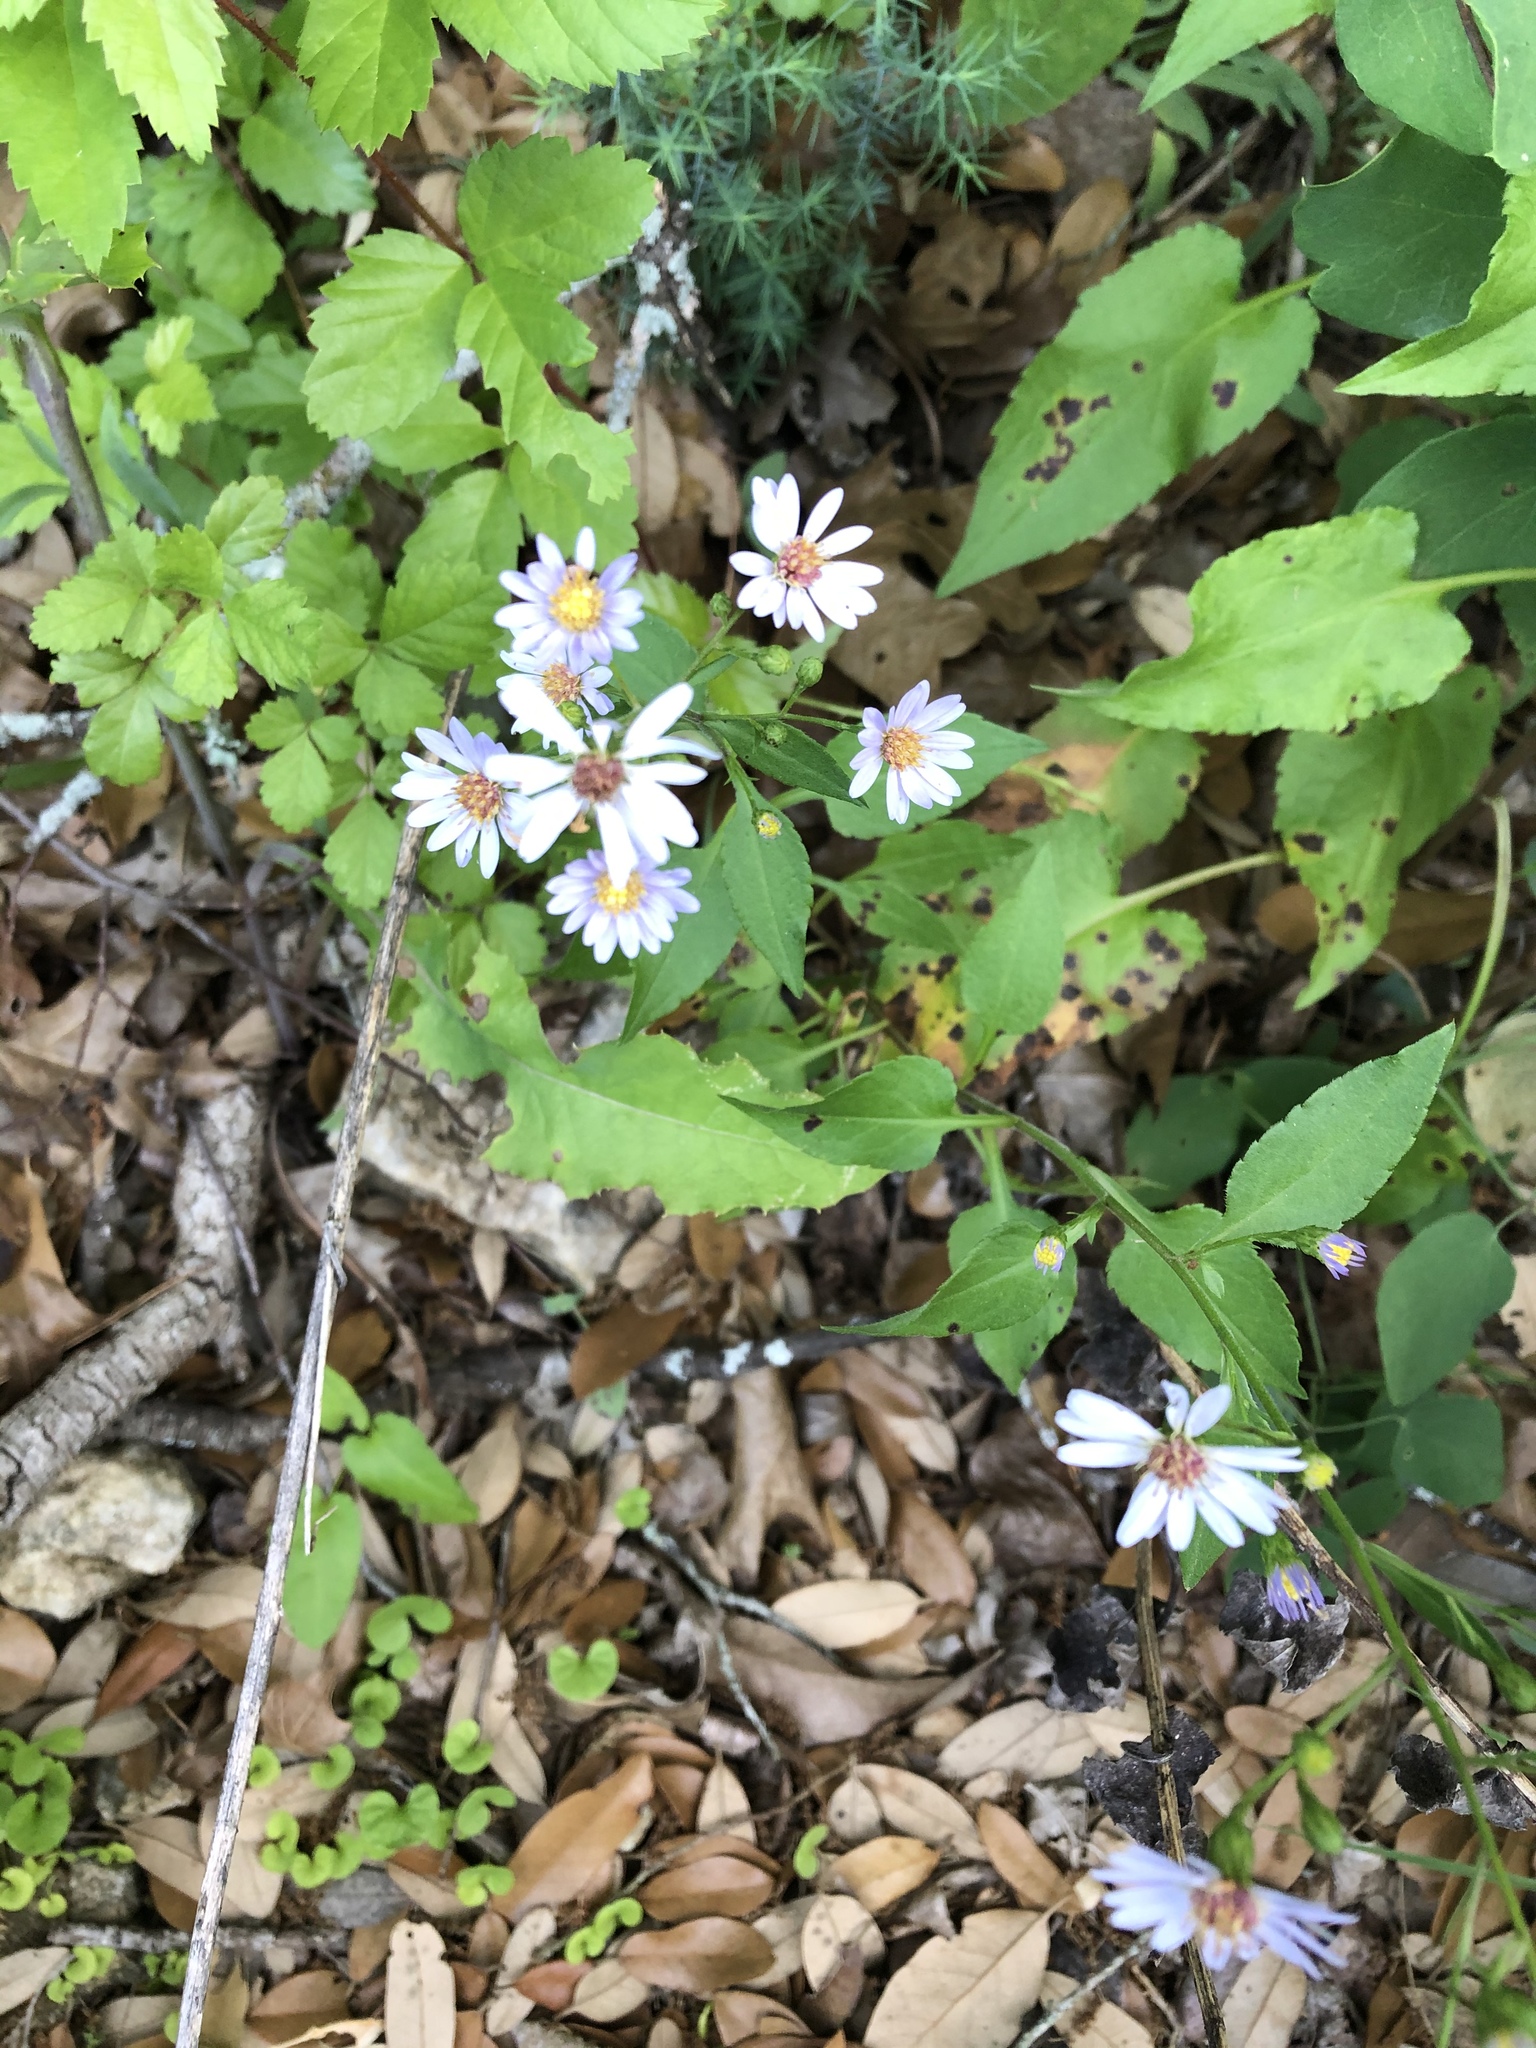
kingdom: Plantae
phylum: Tracheophyta
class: Magnoliopsida
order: Asterales
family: Asteraceae
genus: Symphyotrichum
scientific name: Symphyotrichum drummondii
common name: Drummond's aster
